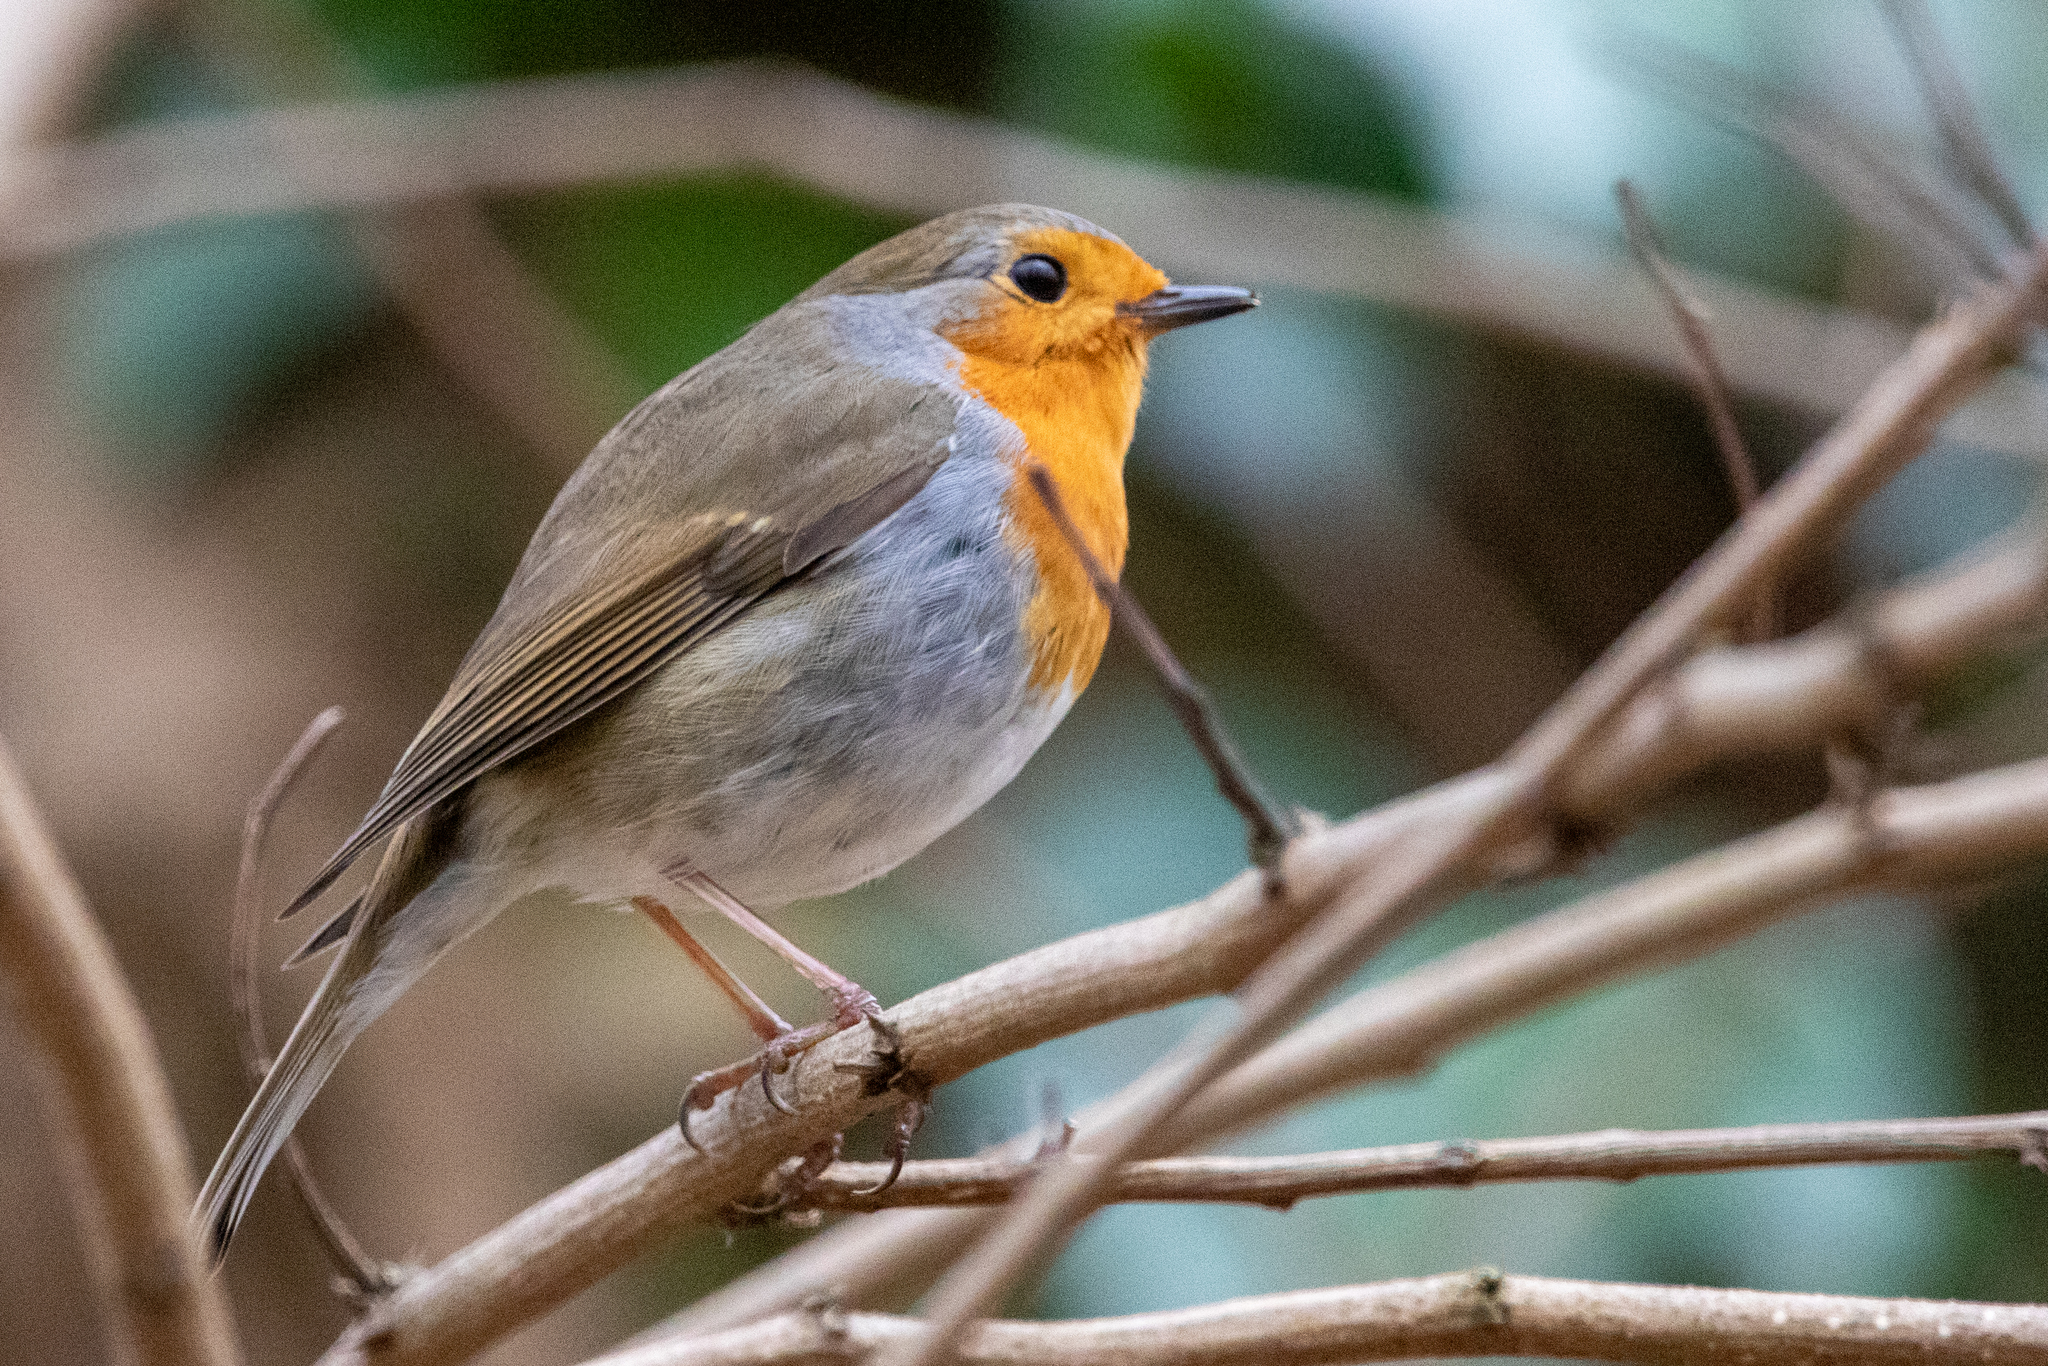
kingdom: Animalia
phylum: Chordata
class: Aves
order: Passeriformes
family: Muscicapidae
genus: Erithacus
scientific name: Erithacus rubecula
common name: European robin
